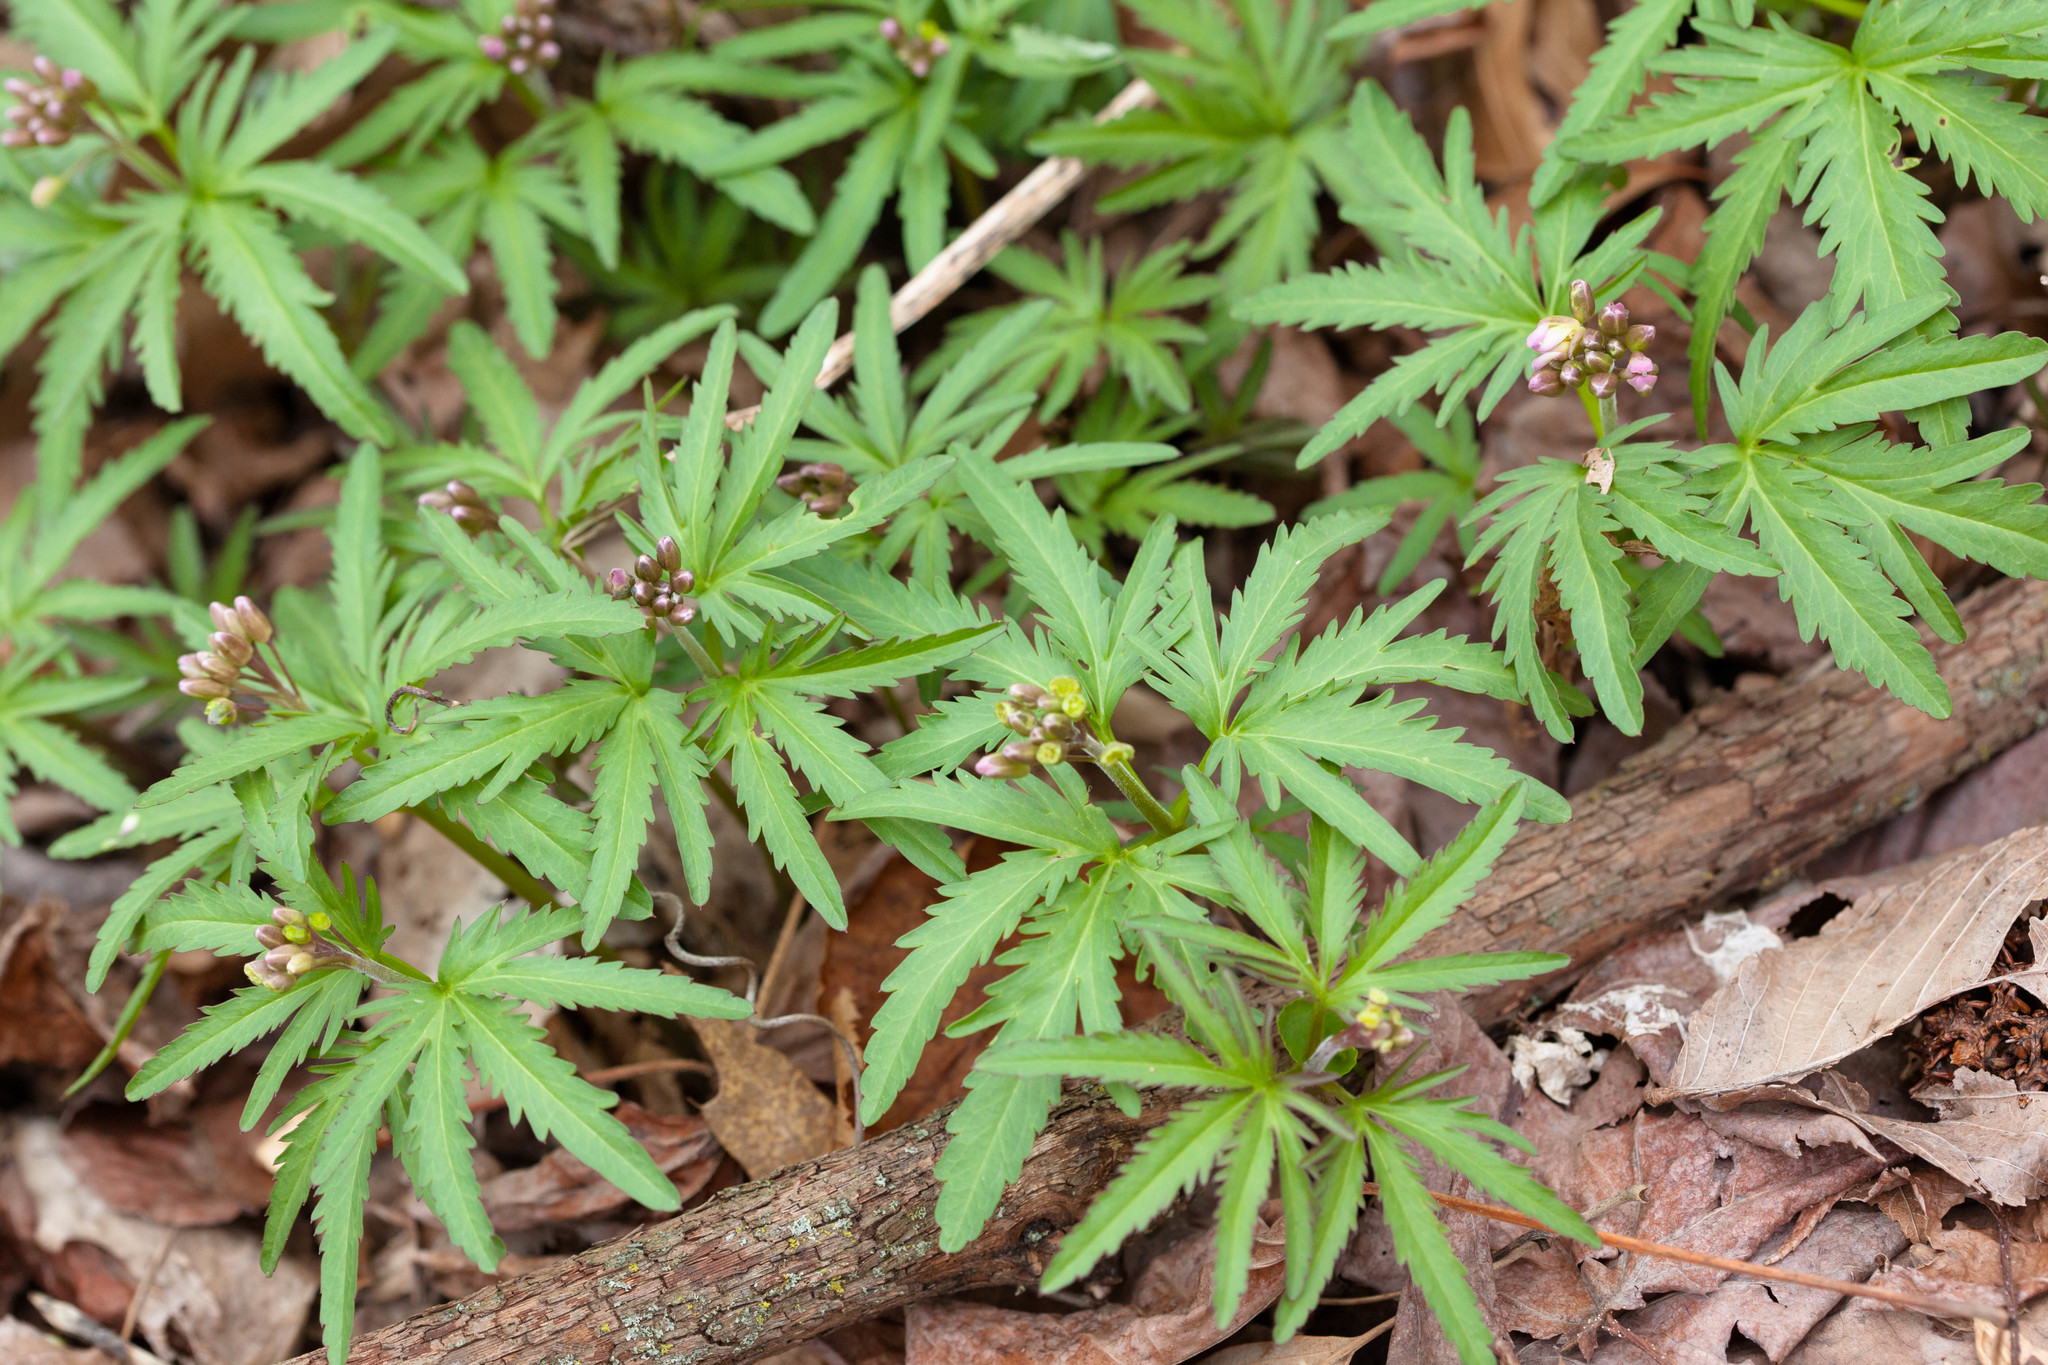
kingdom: Plantae
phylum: Tracheophyta
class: Magnoliopsida
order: Brassicales
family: Brassicaceae
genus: Cardamine
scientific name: Cardamine concatenata
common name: Cut-leaf toothcup
